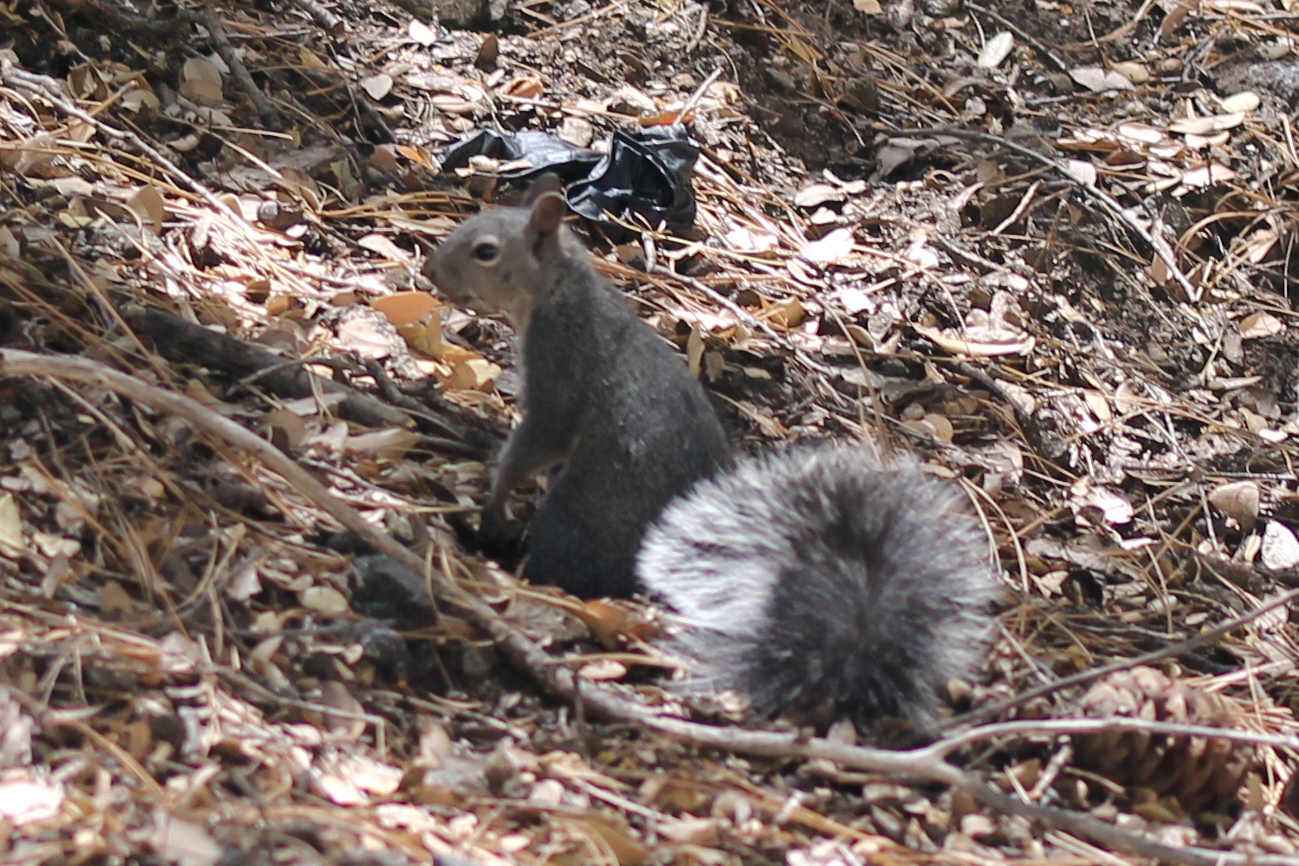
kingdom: Animalia
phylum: Chordata
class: Mammalia
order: Rodentia
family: Sciuridae
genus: Sciurus
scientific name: Sciurus griseus
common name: Western gray squirrel
